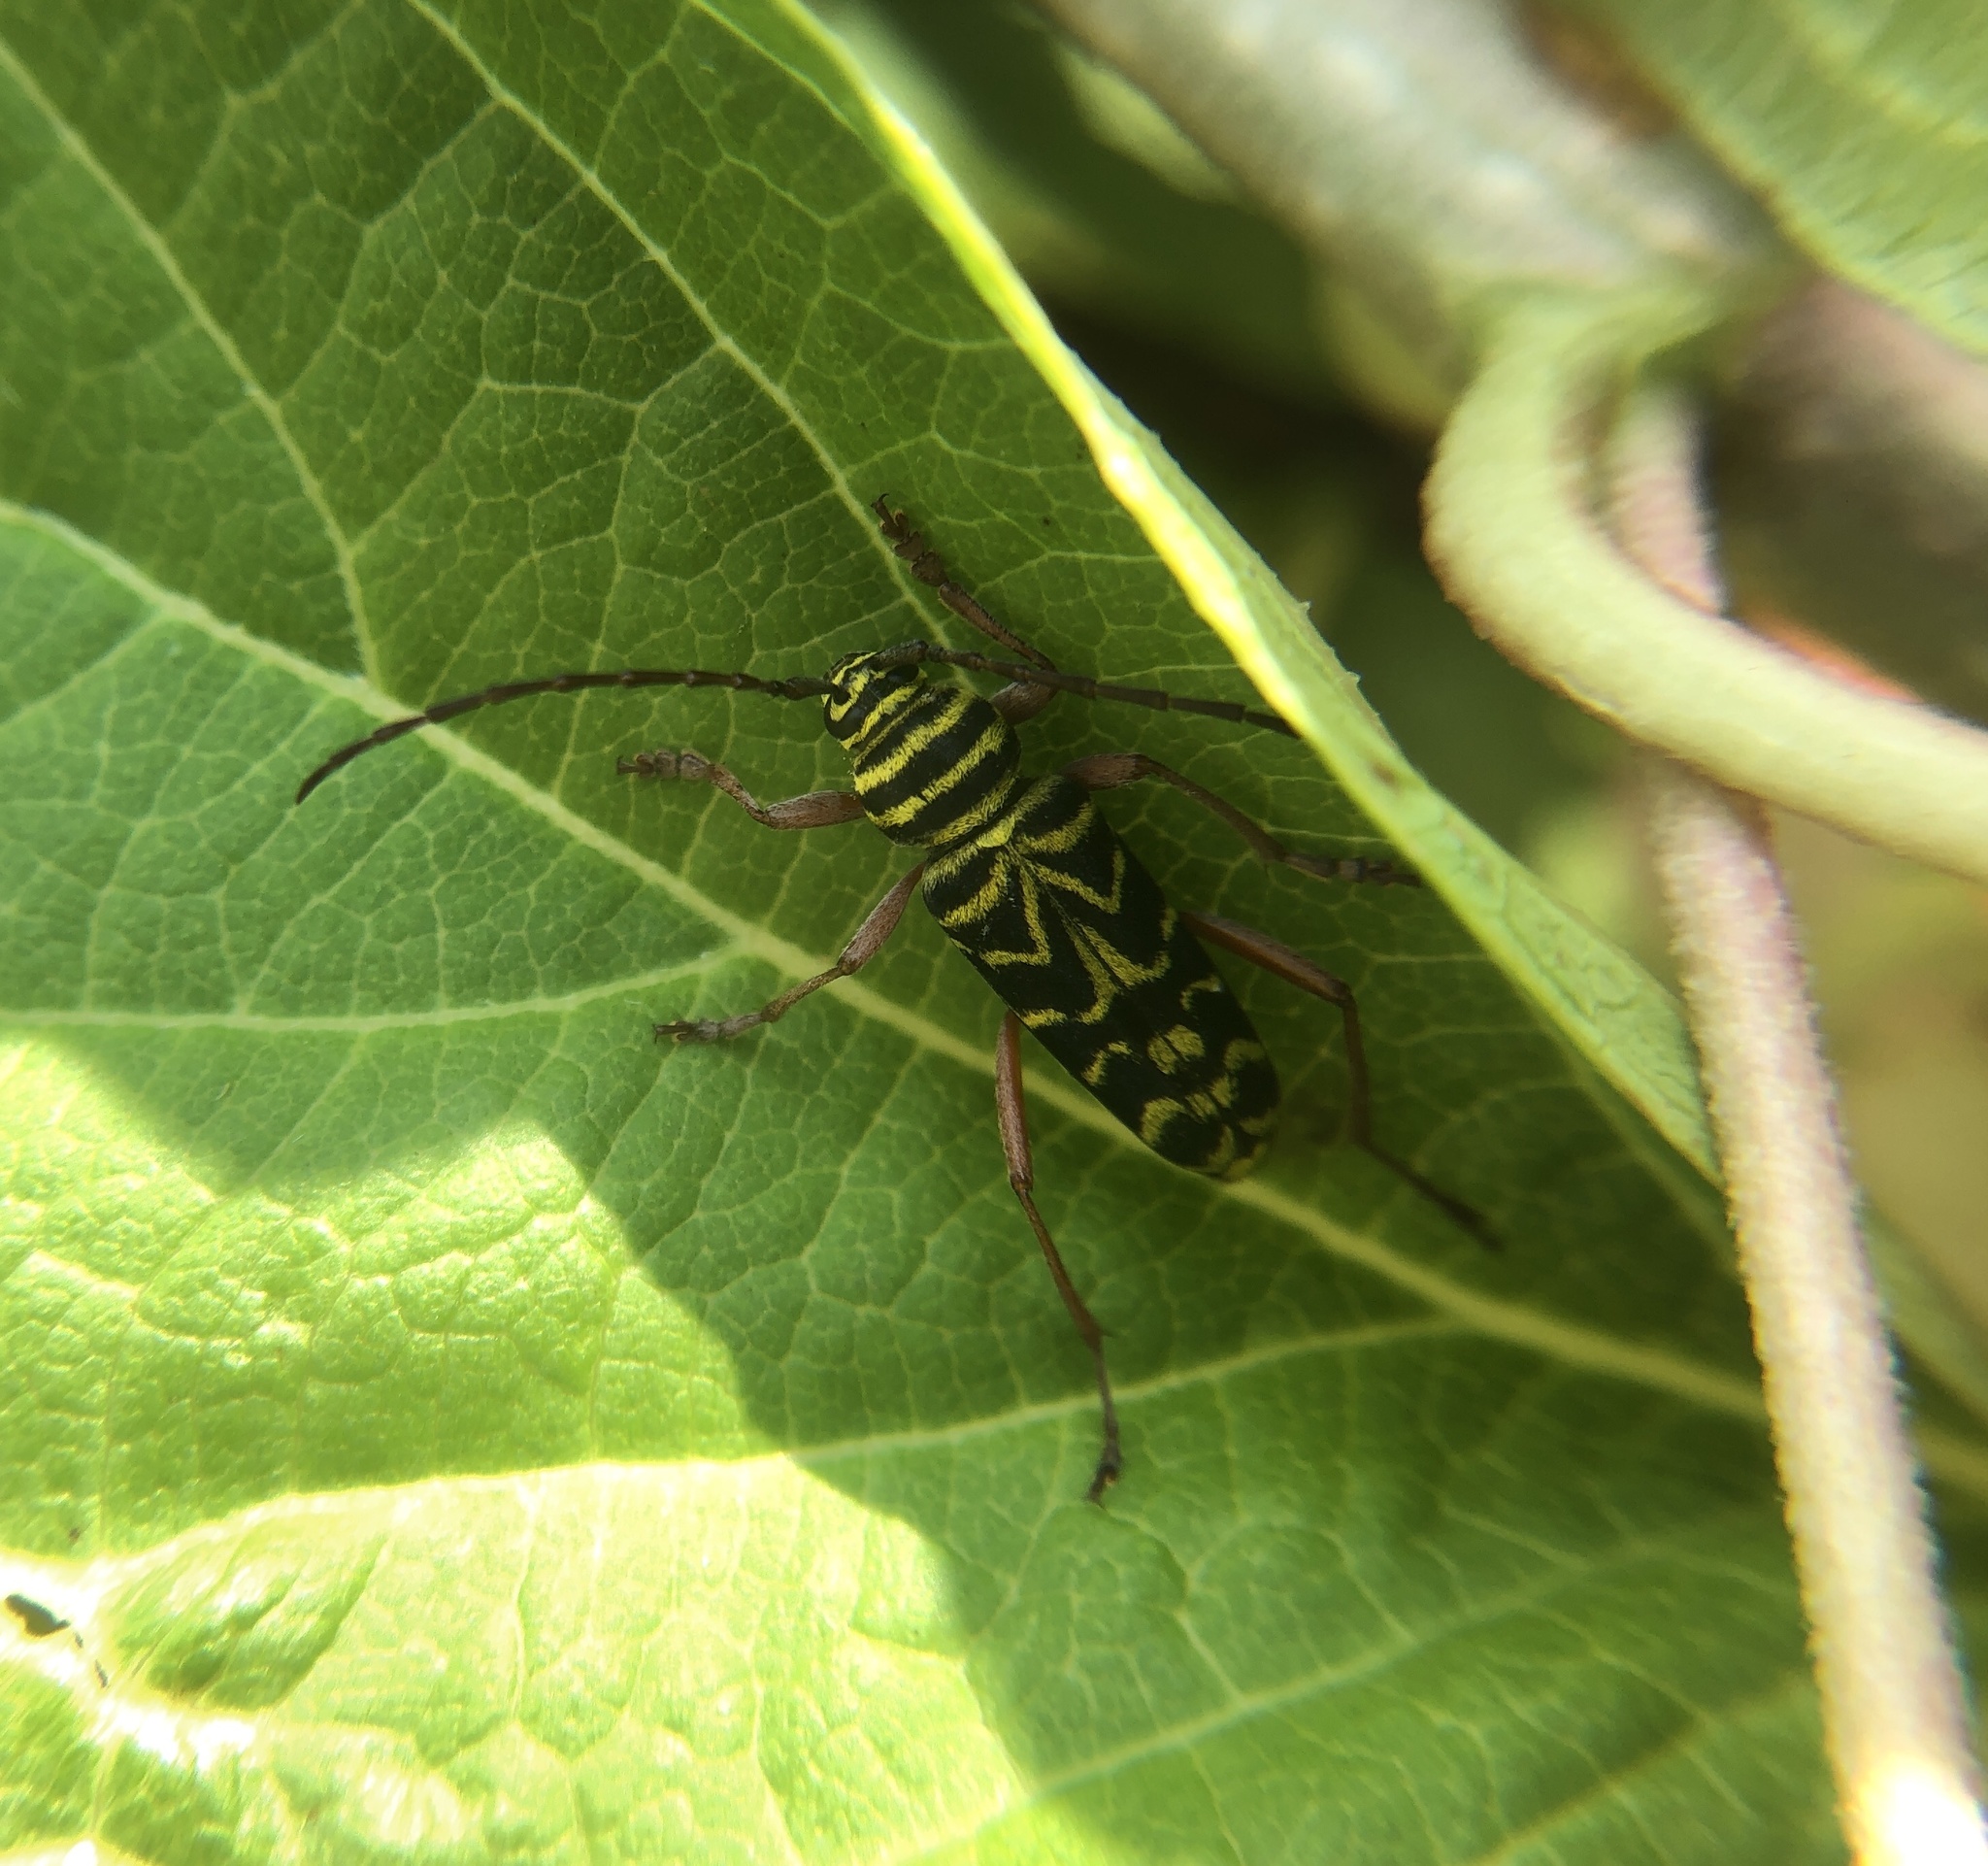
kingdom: Animalia
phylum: Arthropoda
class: Insecta
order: Coleoptera
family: Cerambycidae
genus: Megacyllene
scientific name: Megacyllene robiniae
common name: Locust borer
